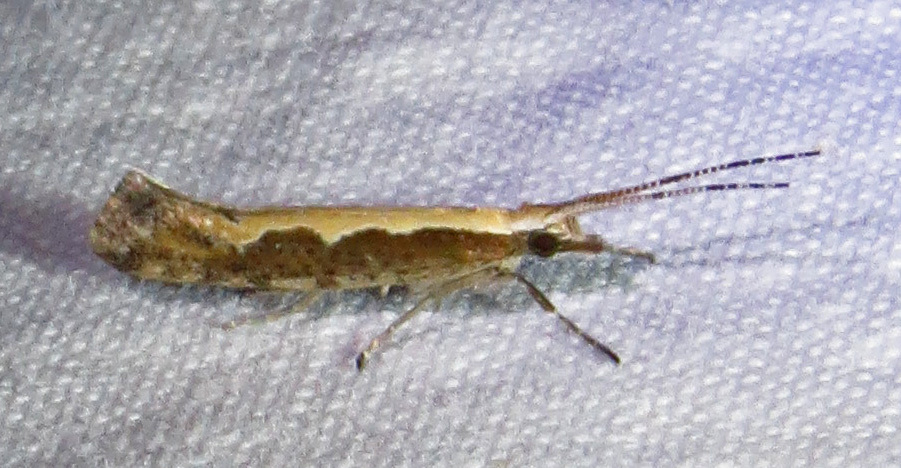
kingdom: Animalia
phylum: Arthropoda
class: Insecta
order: Lepidoptera
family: Plutellidae
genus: Plutella
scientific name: Plutella xylostella
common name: Diamond-back moth
